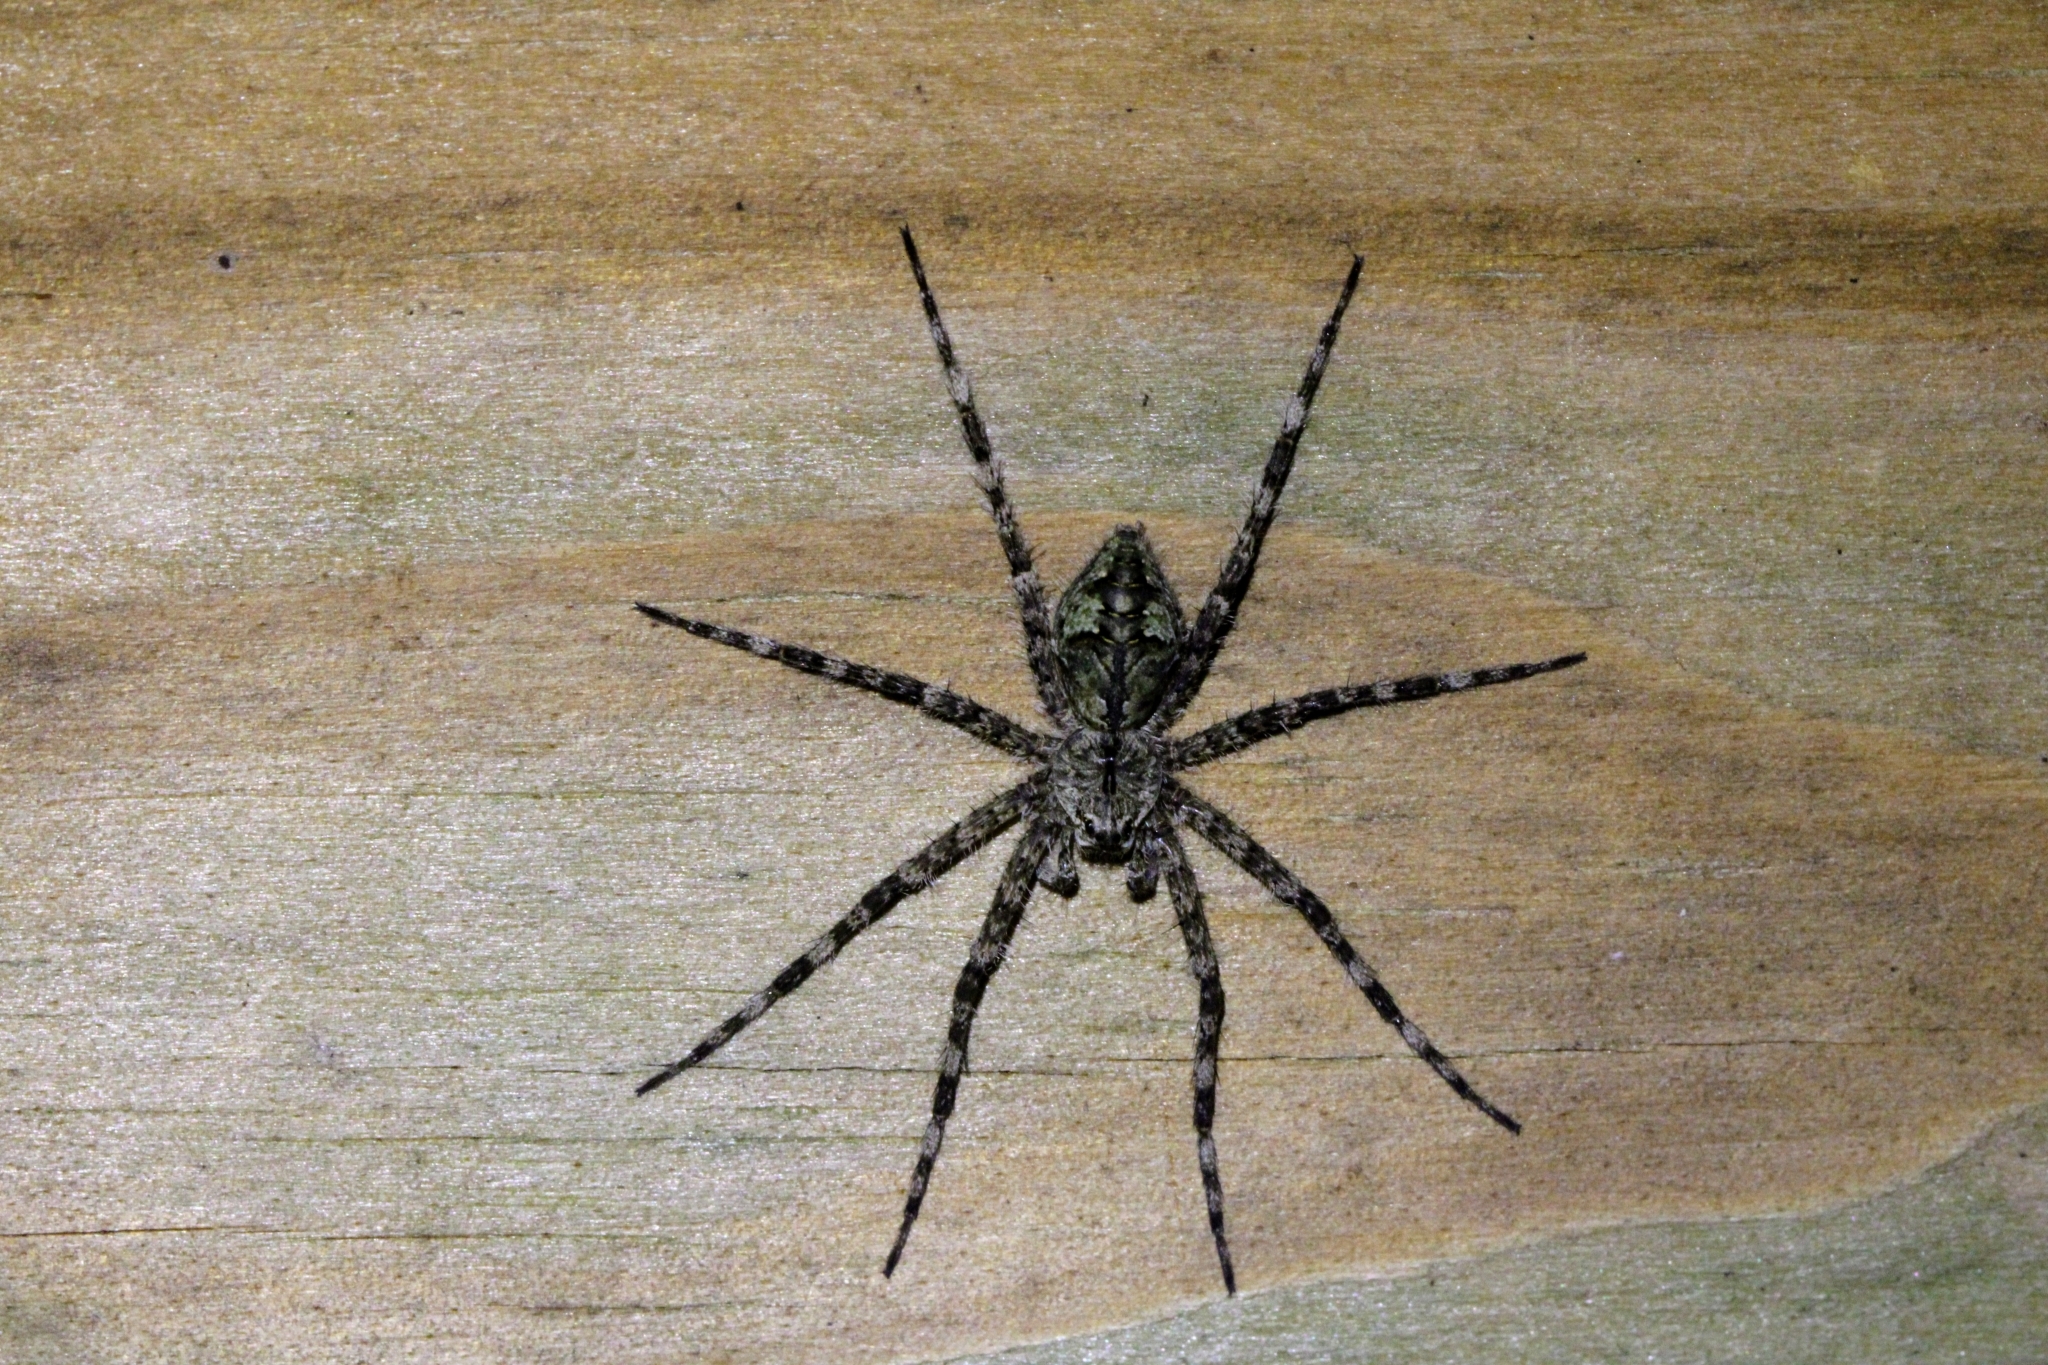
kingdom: Animalia
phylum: Arthropoda
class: Arachnida
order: Araneae
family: Pisauridae
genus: Dolomedes
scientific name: Dolomedes albineus
